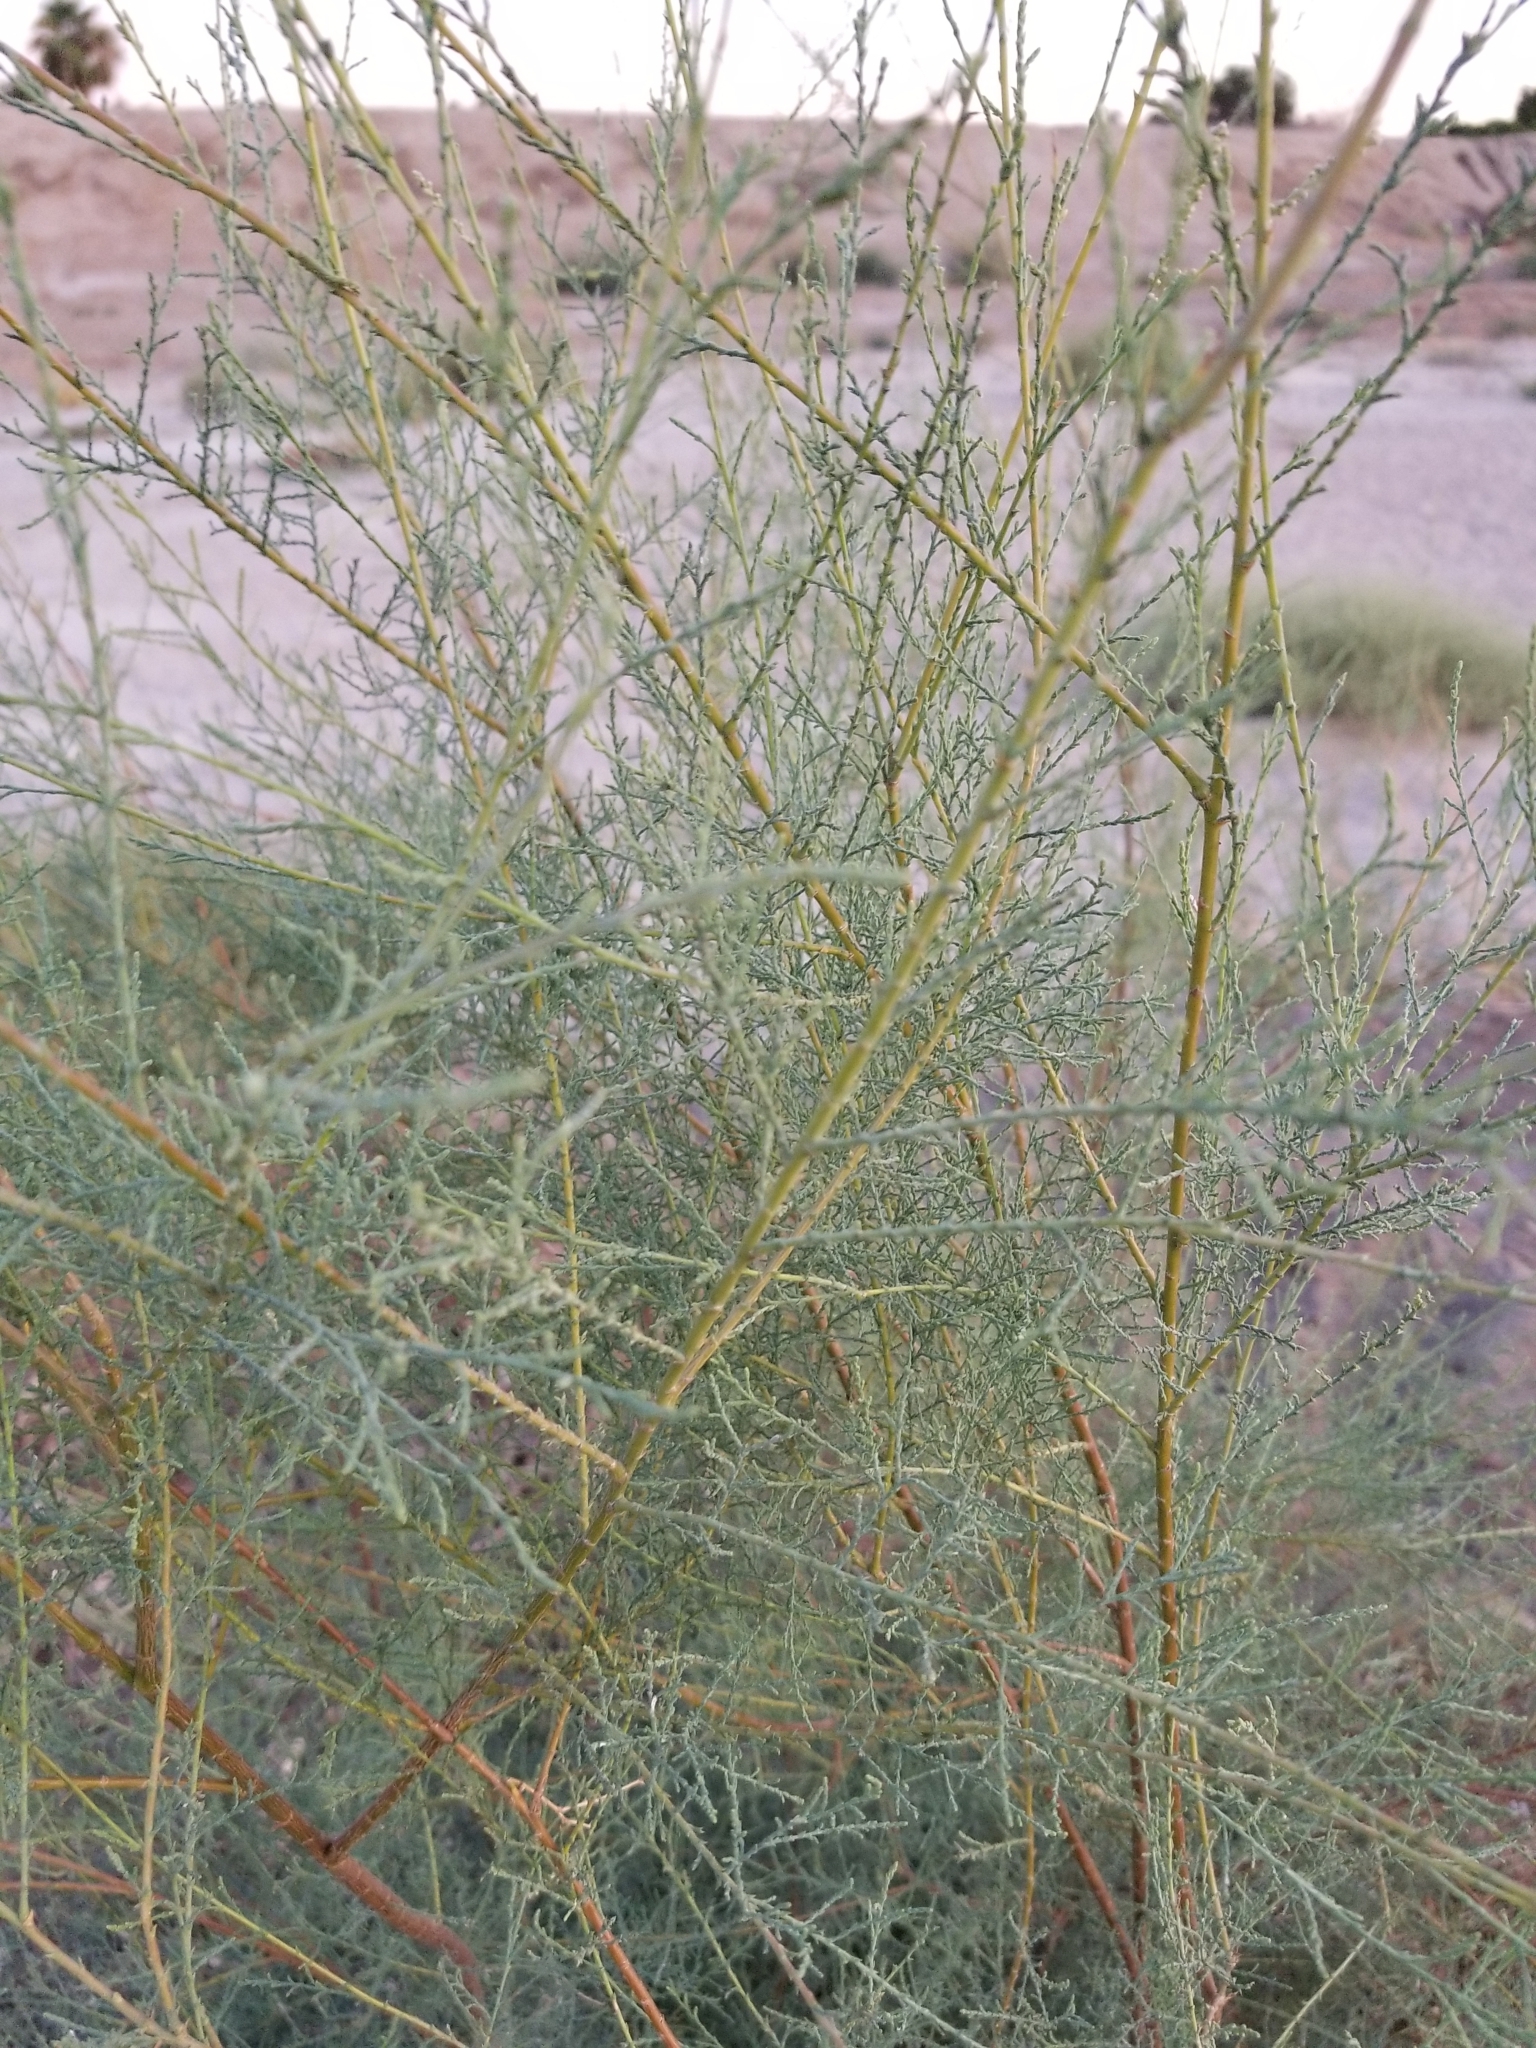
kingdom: Plantae
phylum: Tracheophyta
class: Magnoliopsida
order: Caryophyllales
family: Tamaricaceae
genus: Tamarix
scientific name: Tamarix ramosissima
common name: Pink tamarisk
